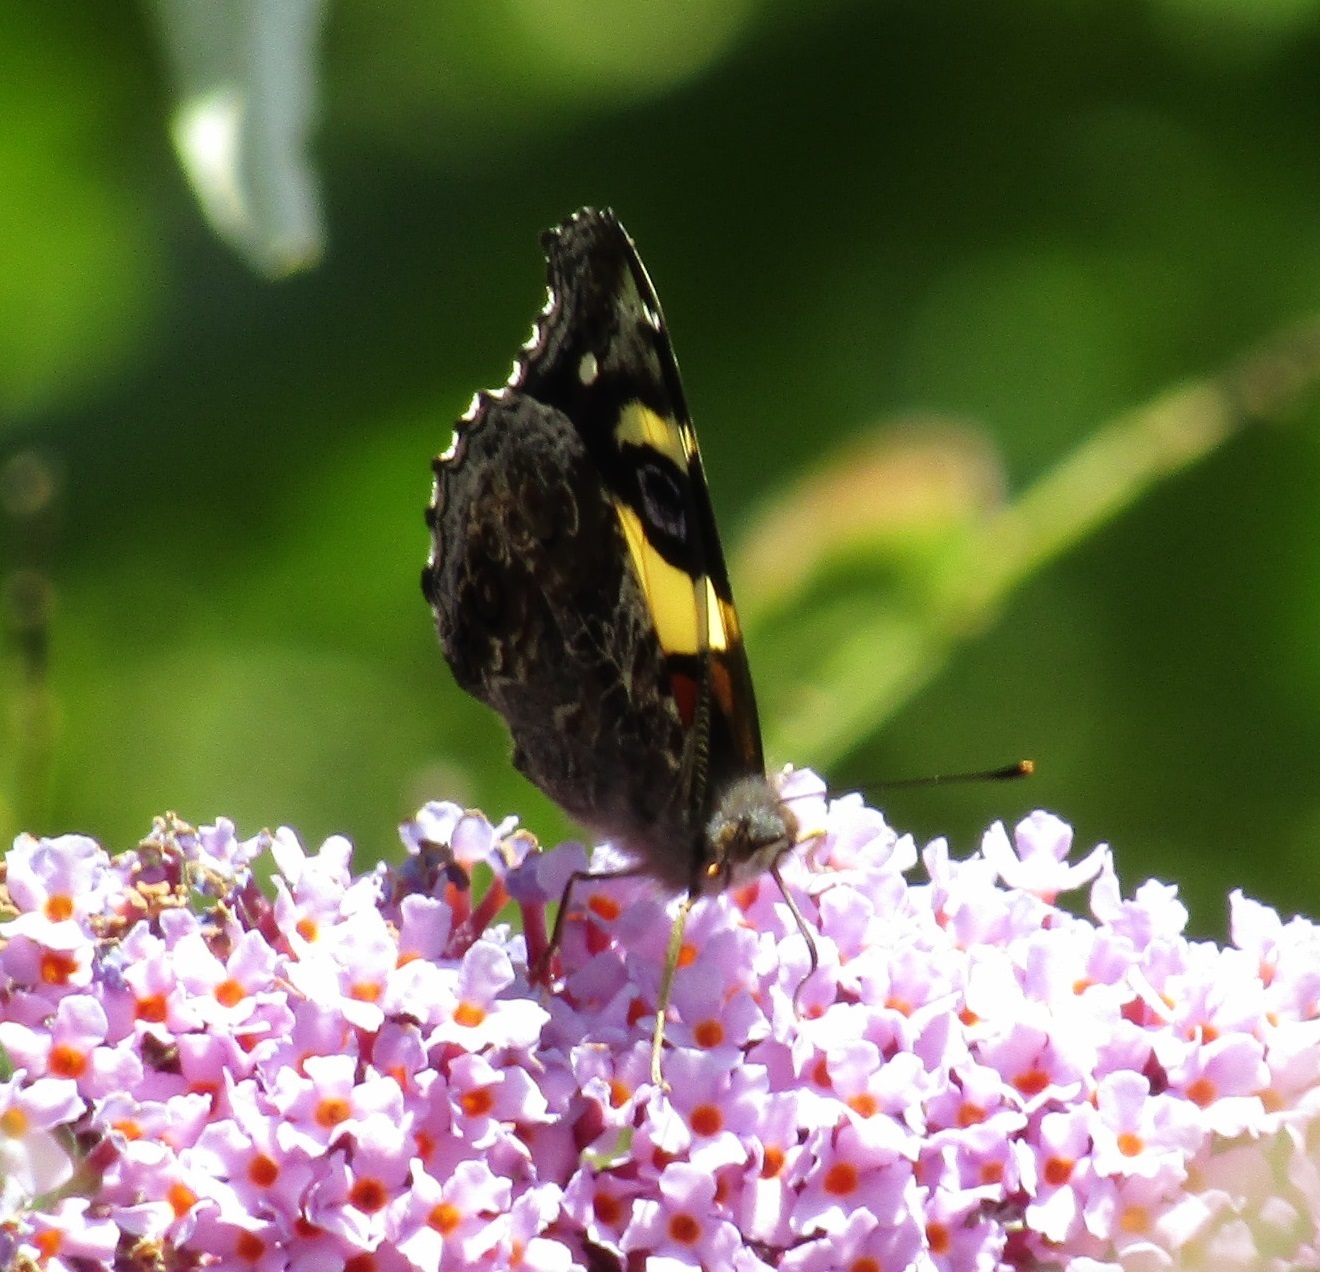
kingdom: Animalia
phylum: Arthropoda
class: Insecta
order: Lepidoptera
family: Nymphalidae
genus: Vanessa
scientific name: Vanessa itea
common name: Yellow admiral
